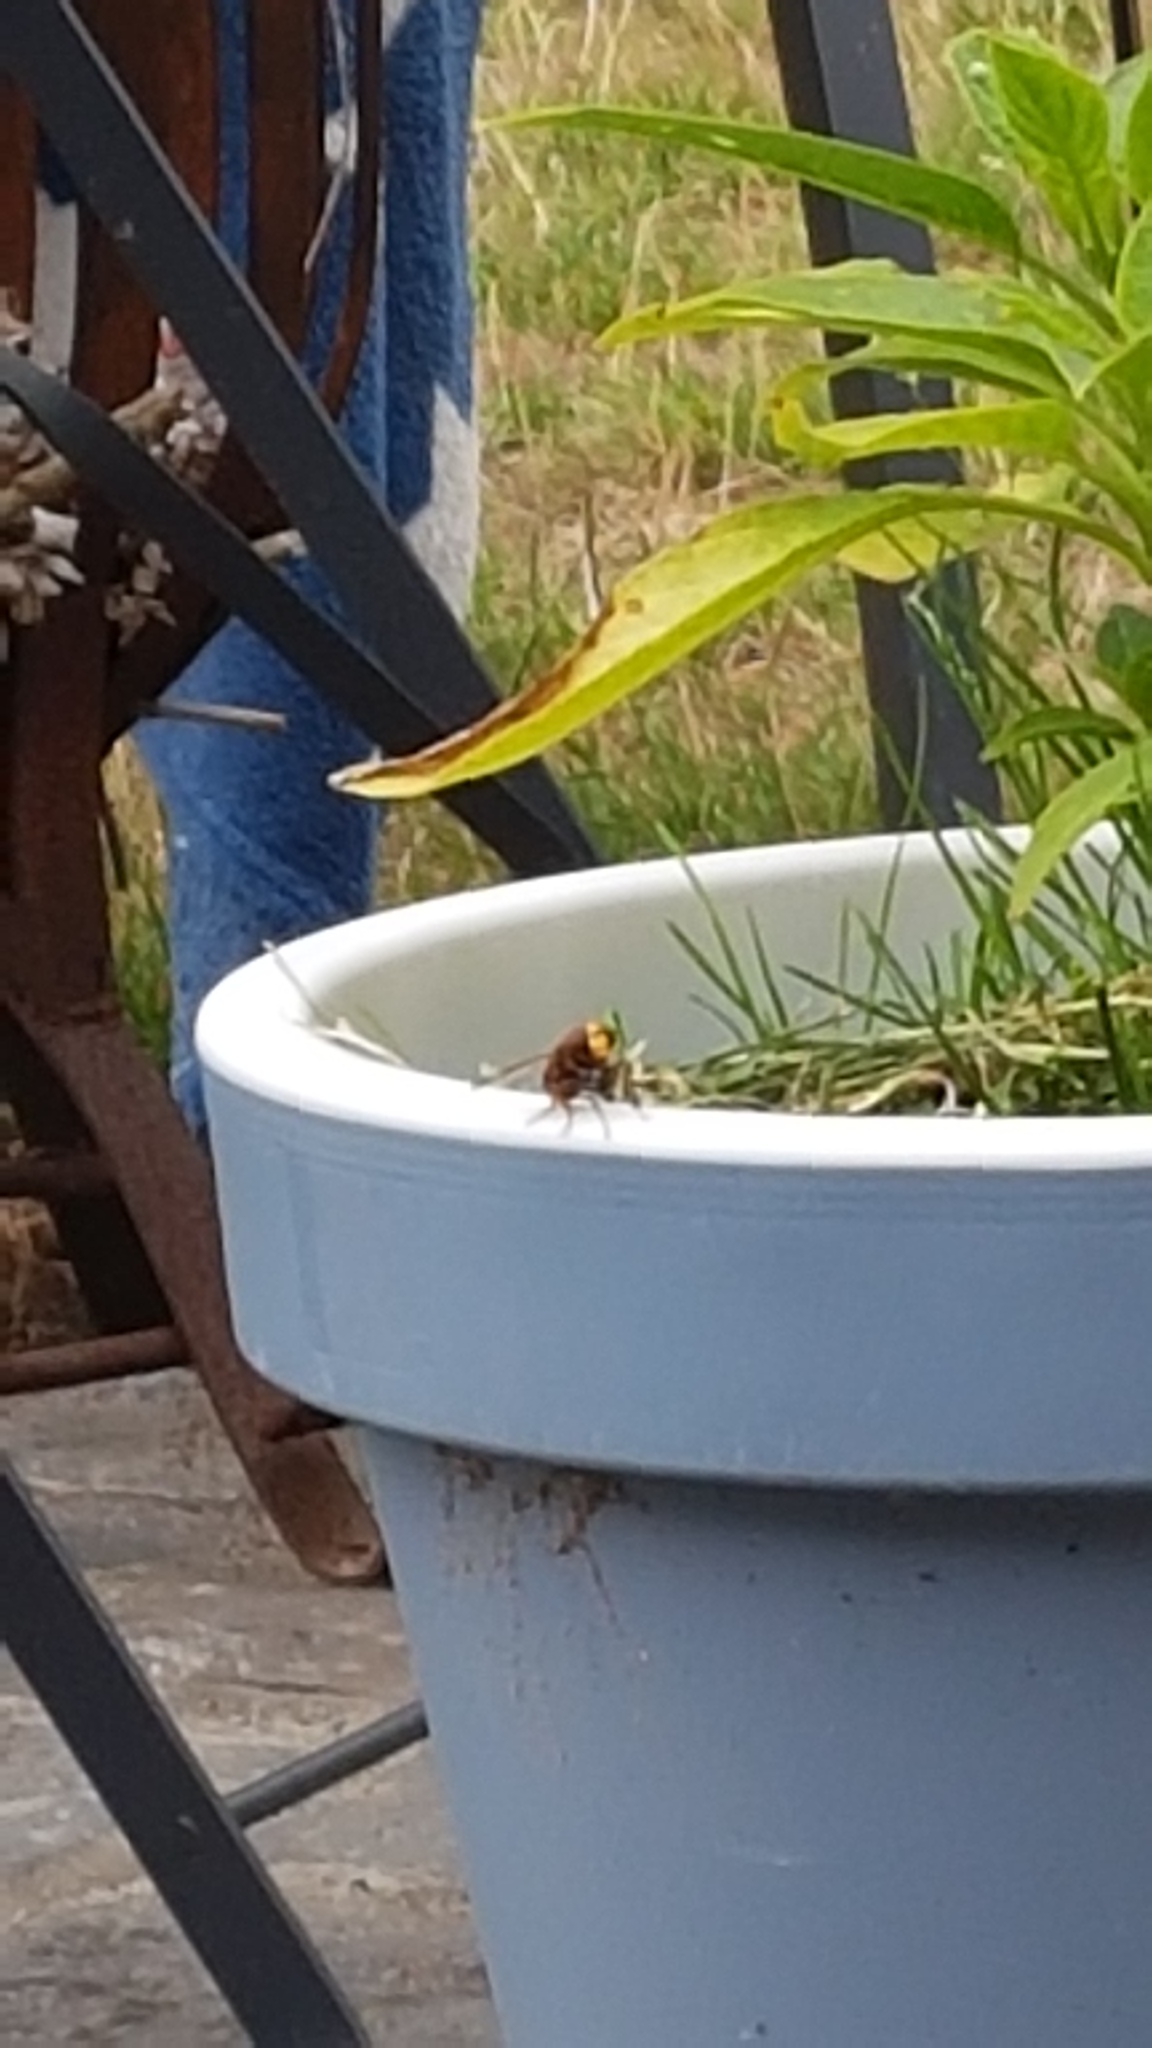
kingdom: Animalia
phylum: Arthropoda
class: Insecta
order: Diptera
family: Syrphidae
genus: Volucella
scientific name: Volucella zonaria
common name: Hornet hoverfly
